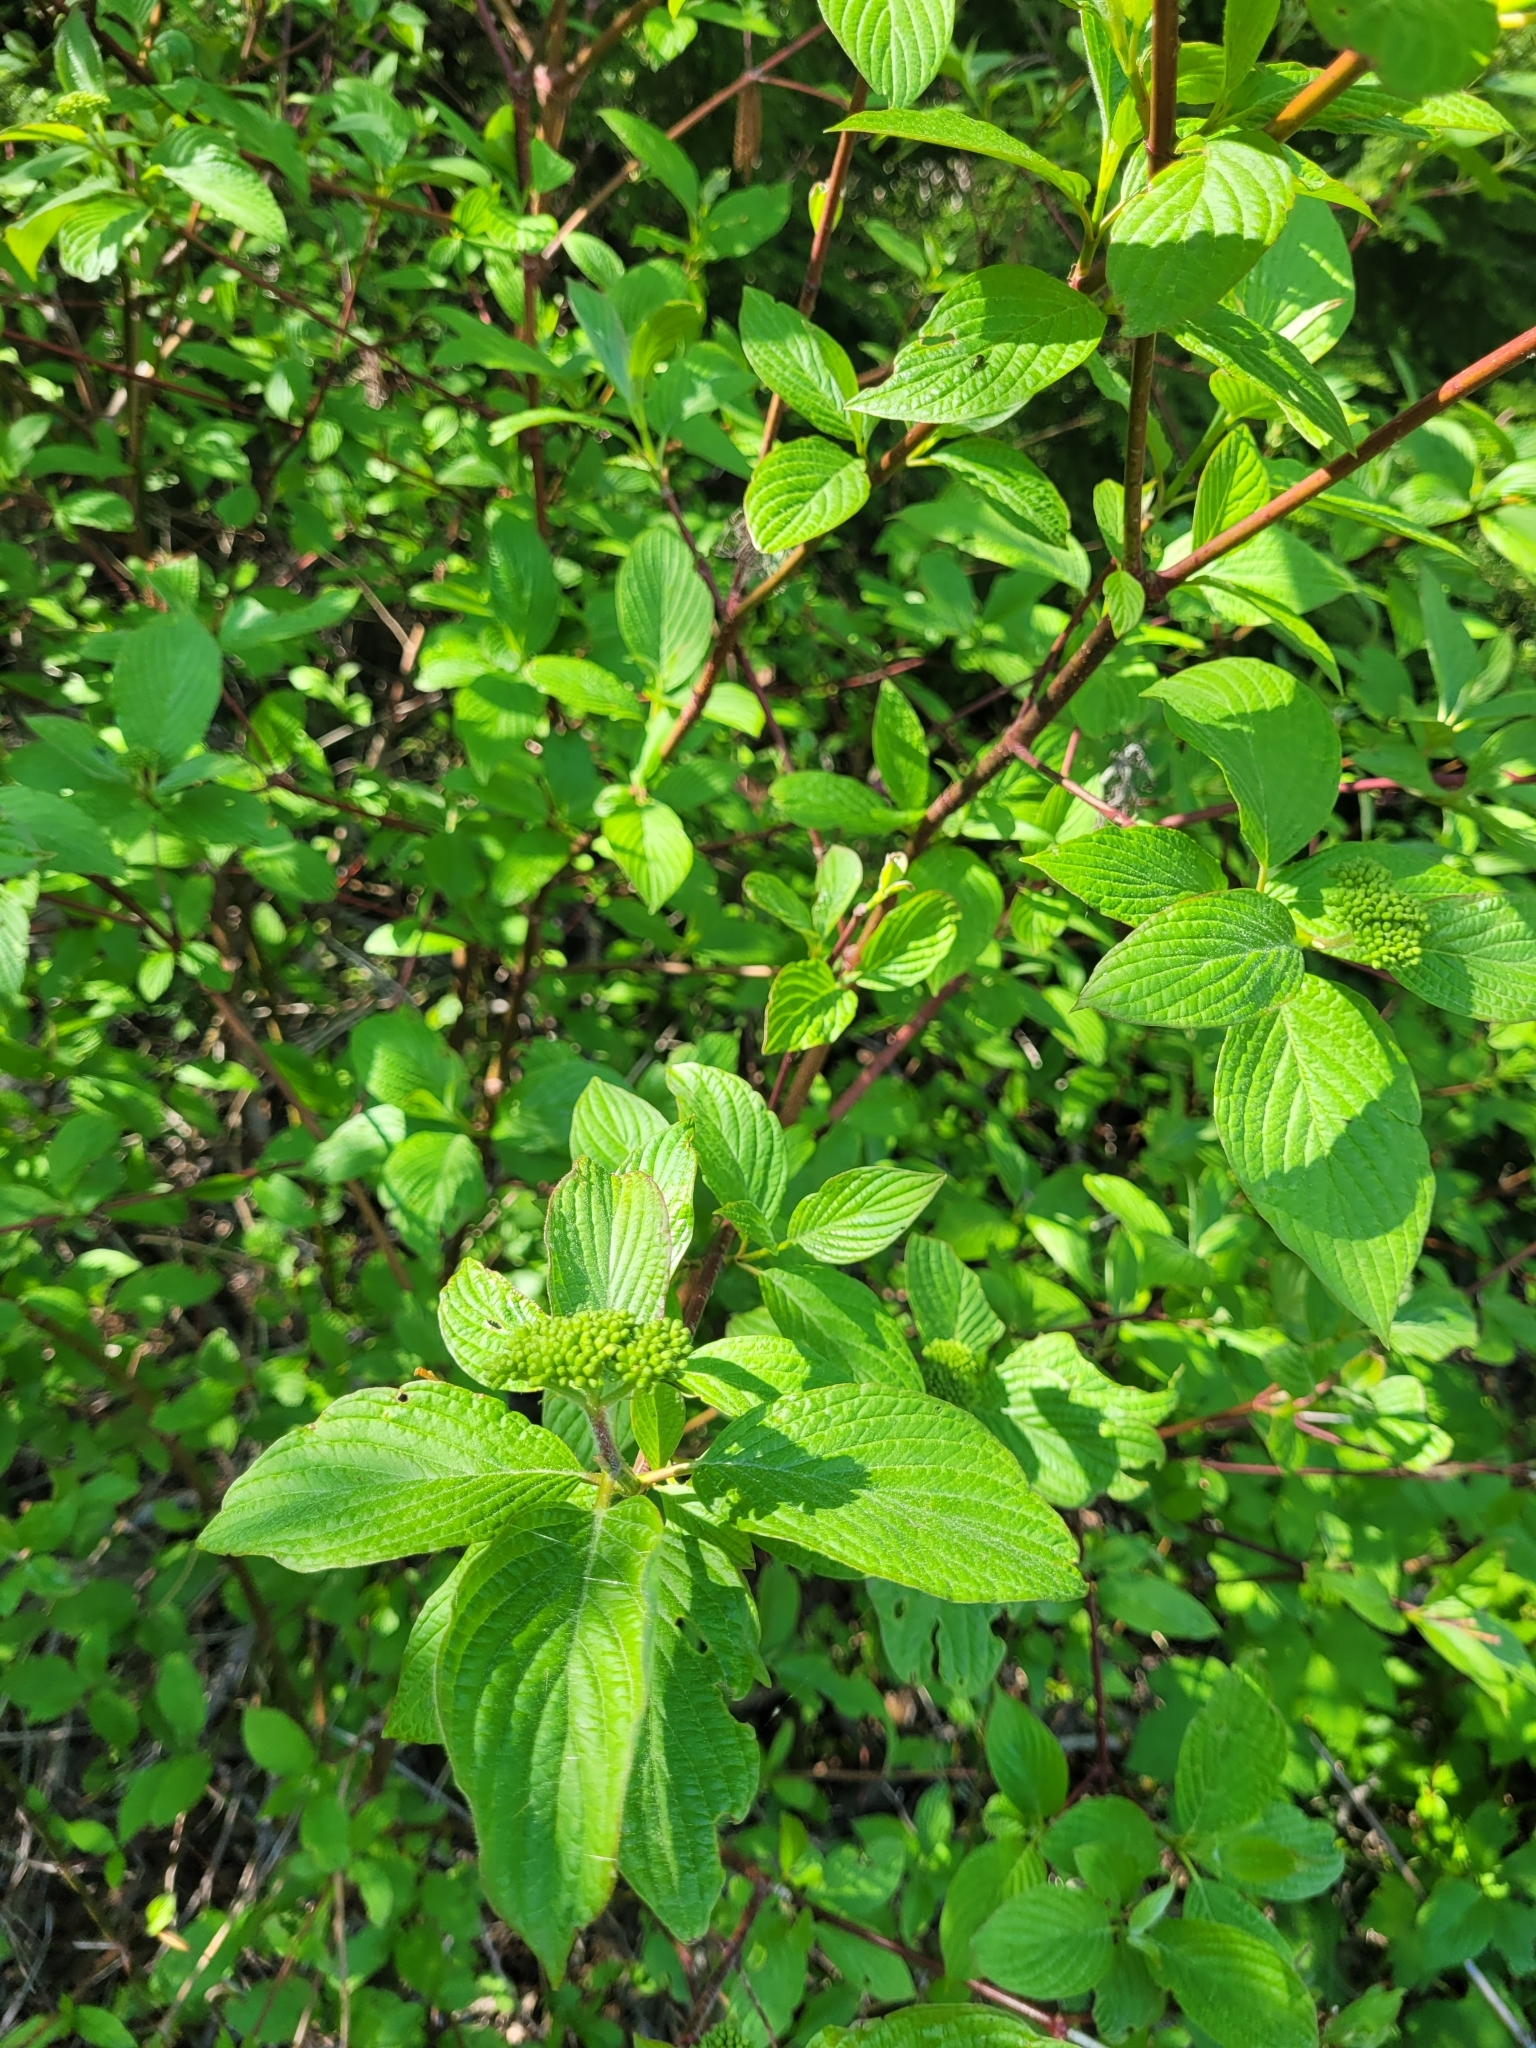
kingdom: Plantae
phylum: Tracheophyta
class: Magnoliopsida
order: Cornales
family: Cornaceae
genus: Cornus
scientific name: Cornus sericea
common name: Red-osier dogwood
